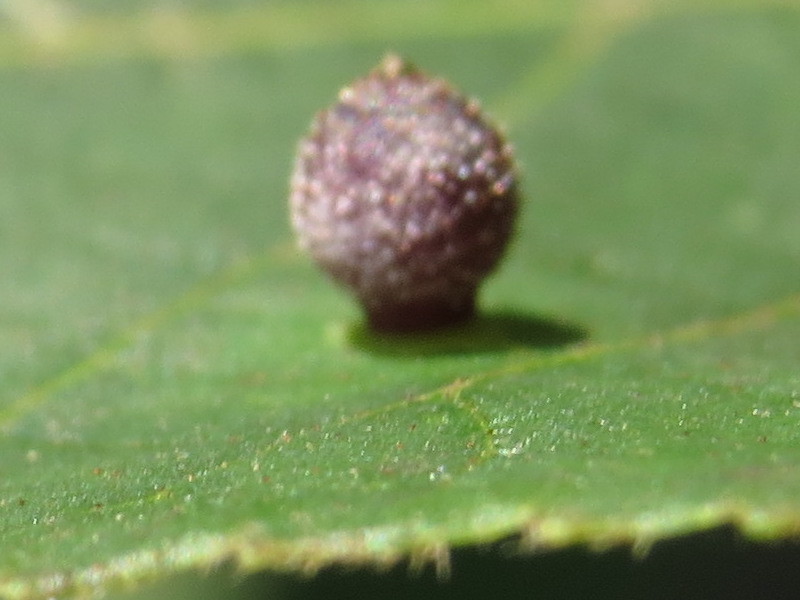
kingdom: Animalia
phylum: Arthropoda
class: Insecta
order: Diptera
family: Cecidomyiidae
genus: Caryomyia
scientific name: Caryomyia viscidolium
